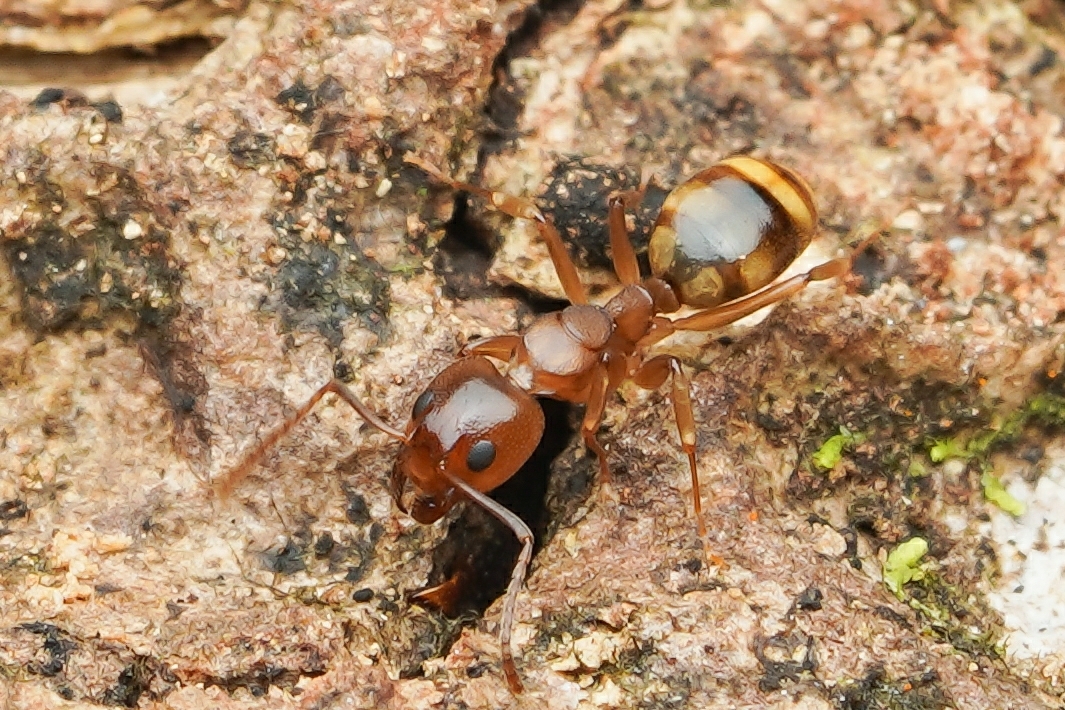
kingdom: Animalia
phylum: Arthropoda
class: Insecta
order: Hymenoptera
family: Formicidae
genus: Dolichoderus
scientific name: Dolichoderus lutosus
